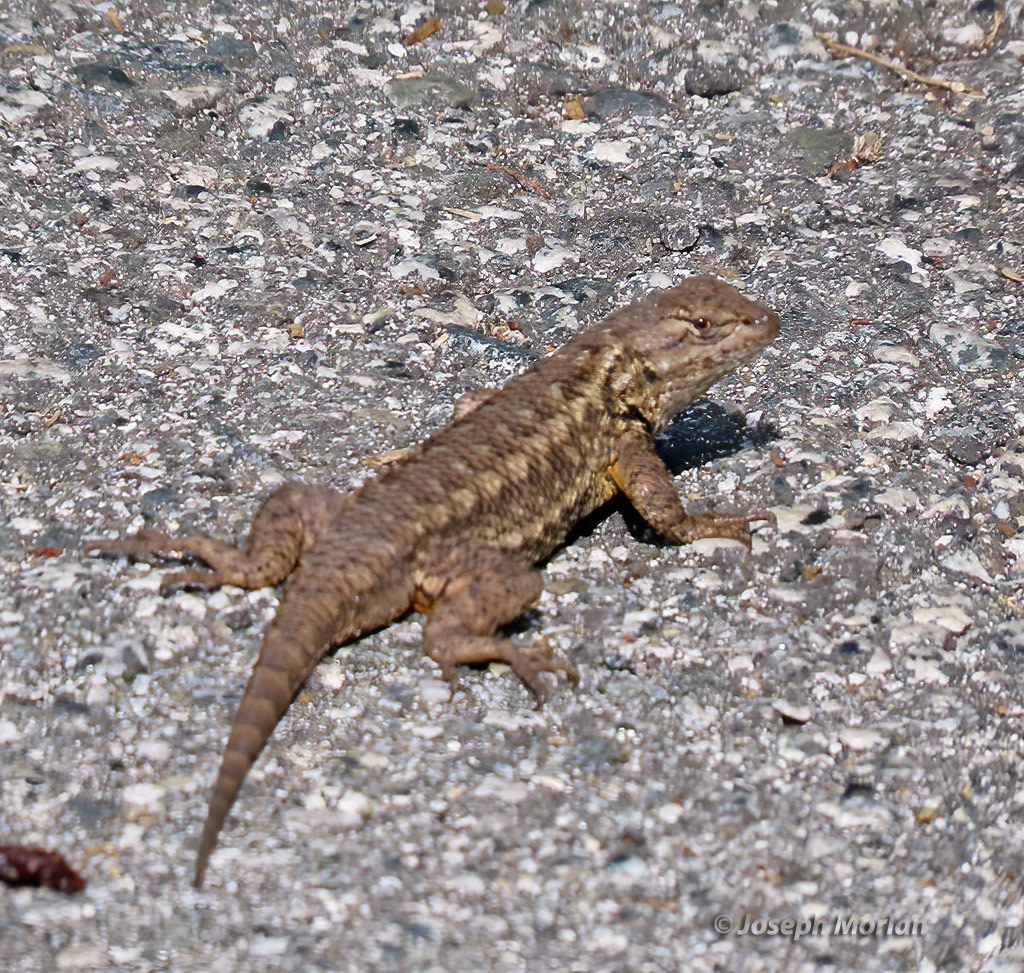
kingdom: Animalia
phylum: Chordata
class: Squamata
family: Phrynosomatidae
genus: Sceloporus
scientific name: Sceloporus occidentalis
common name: Western fence lizard
